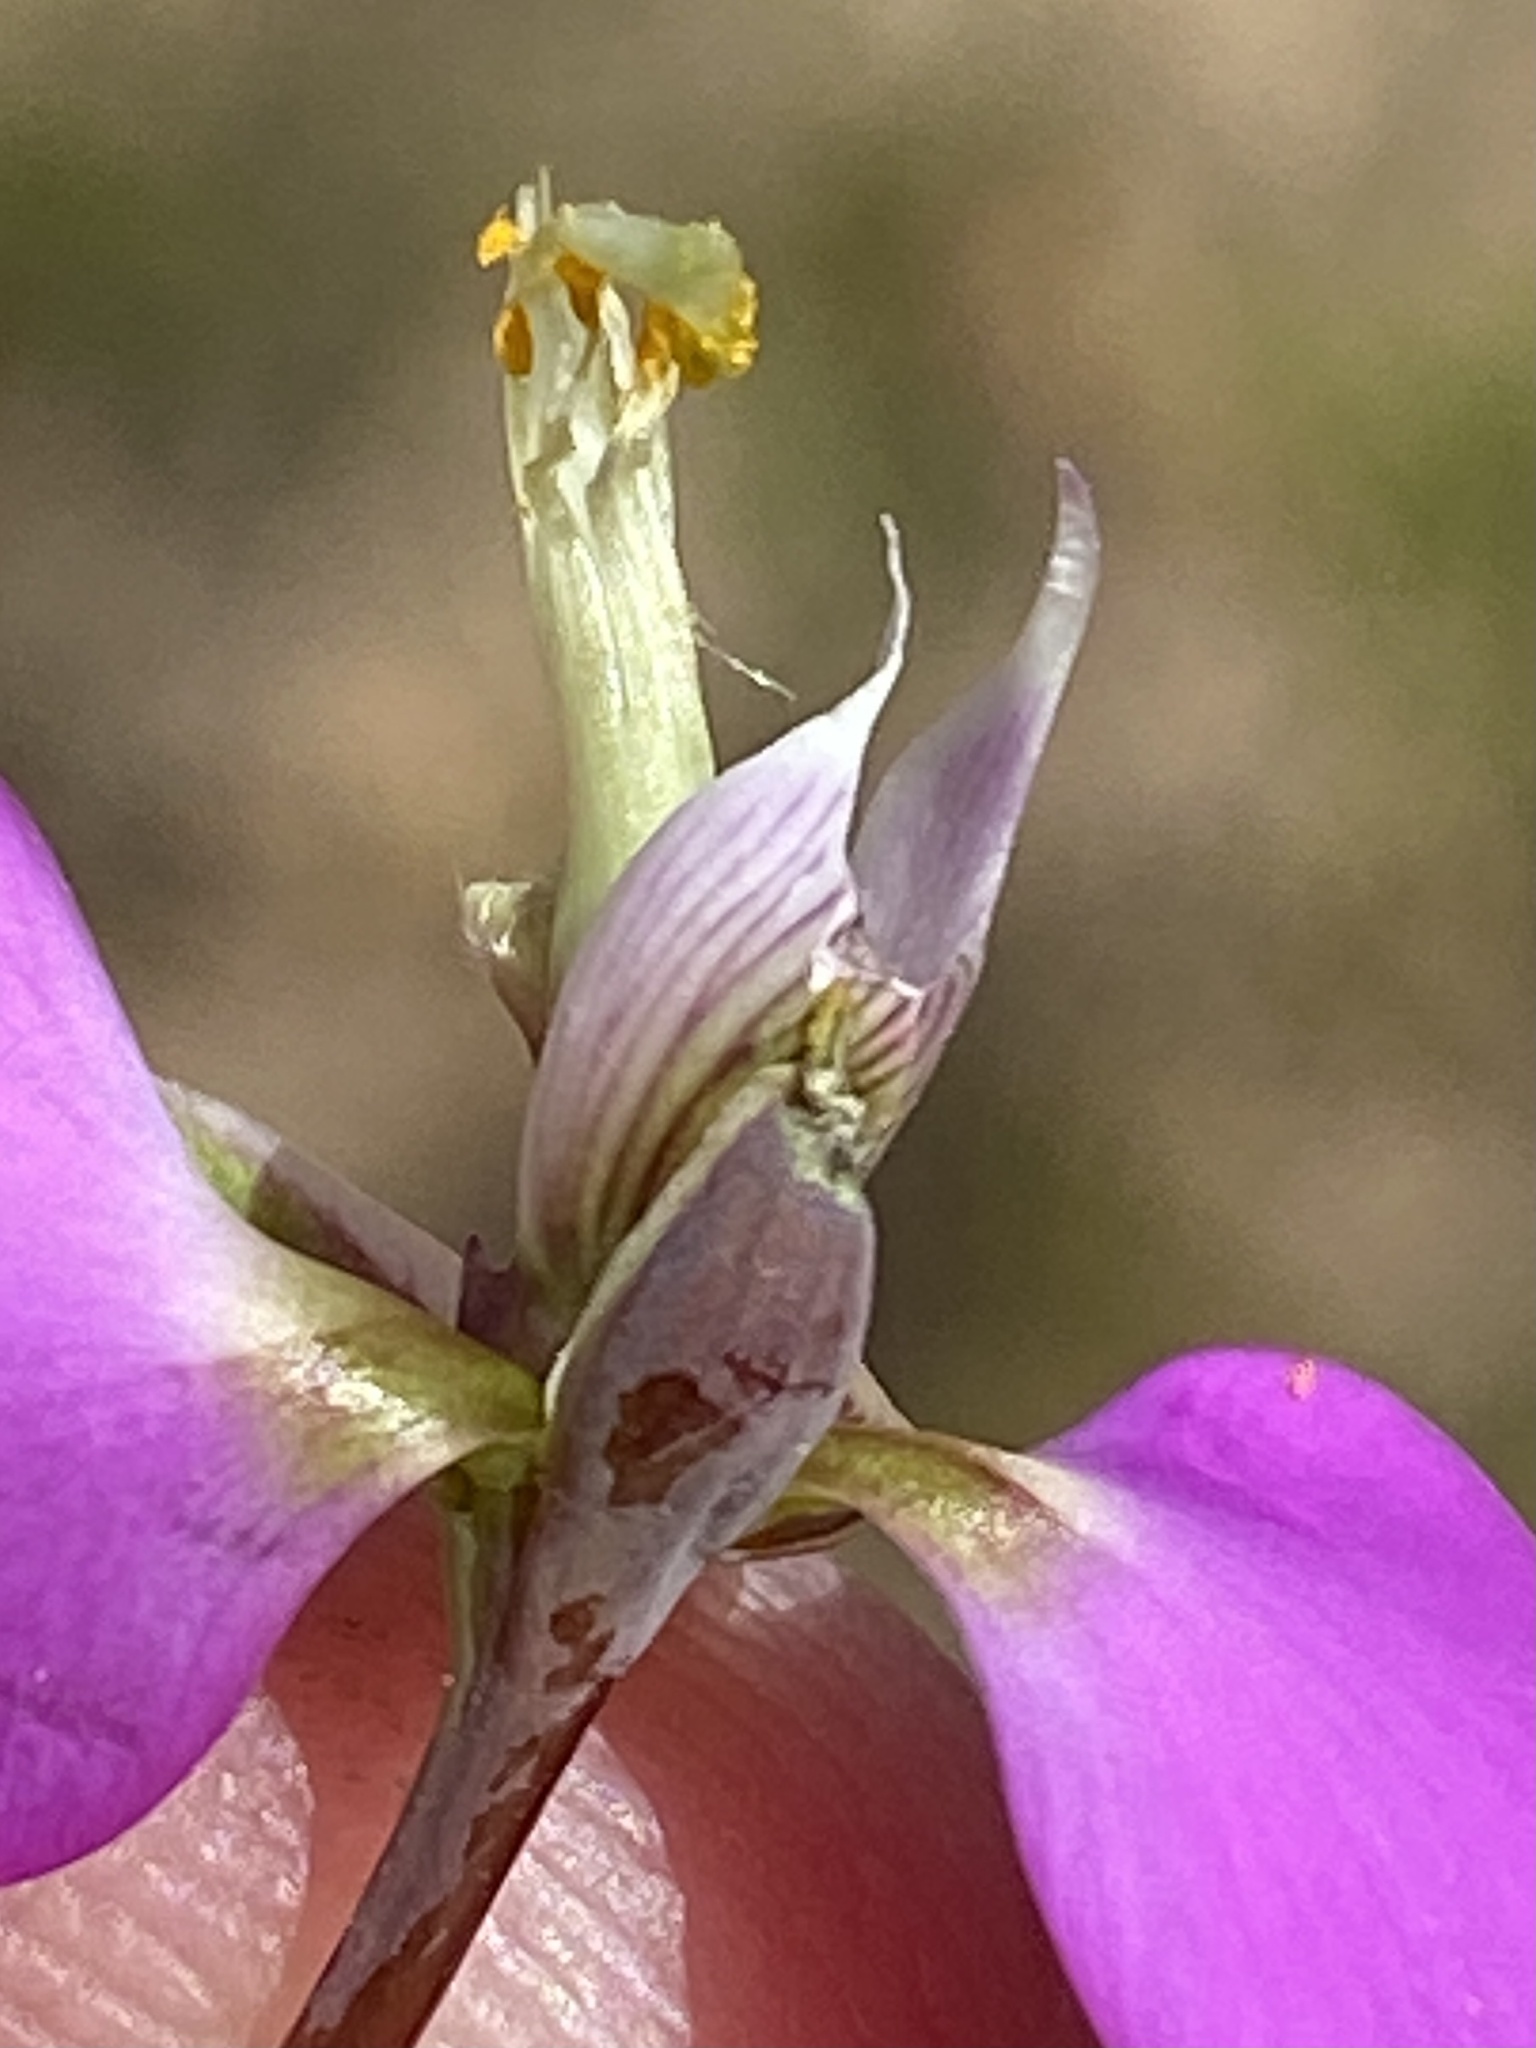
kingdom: Plantae
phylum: Tracheophyta
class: Magnoliopsida
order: Fabales
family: Polygalaceae
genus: Polygala
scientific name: Polygala bracteolata
